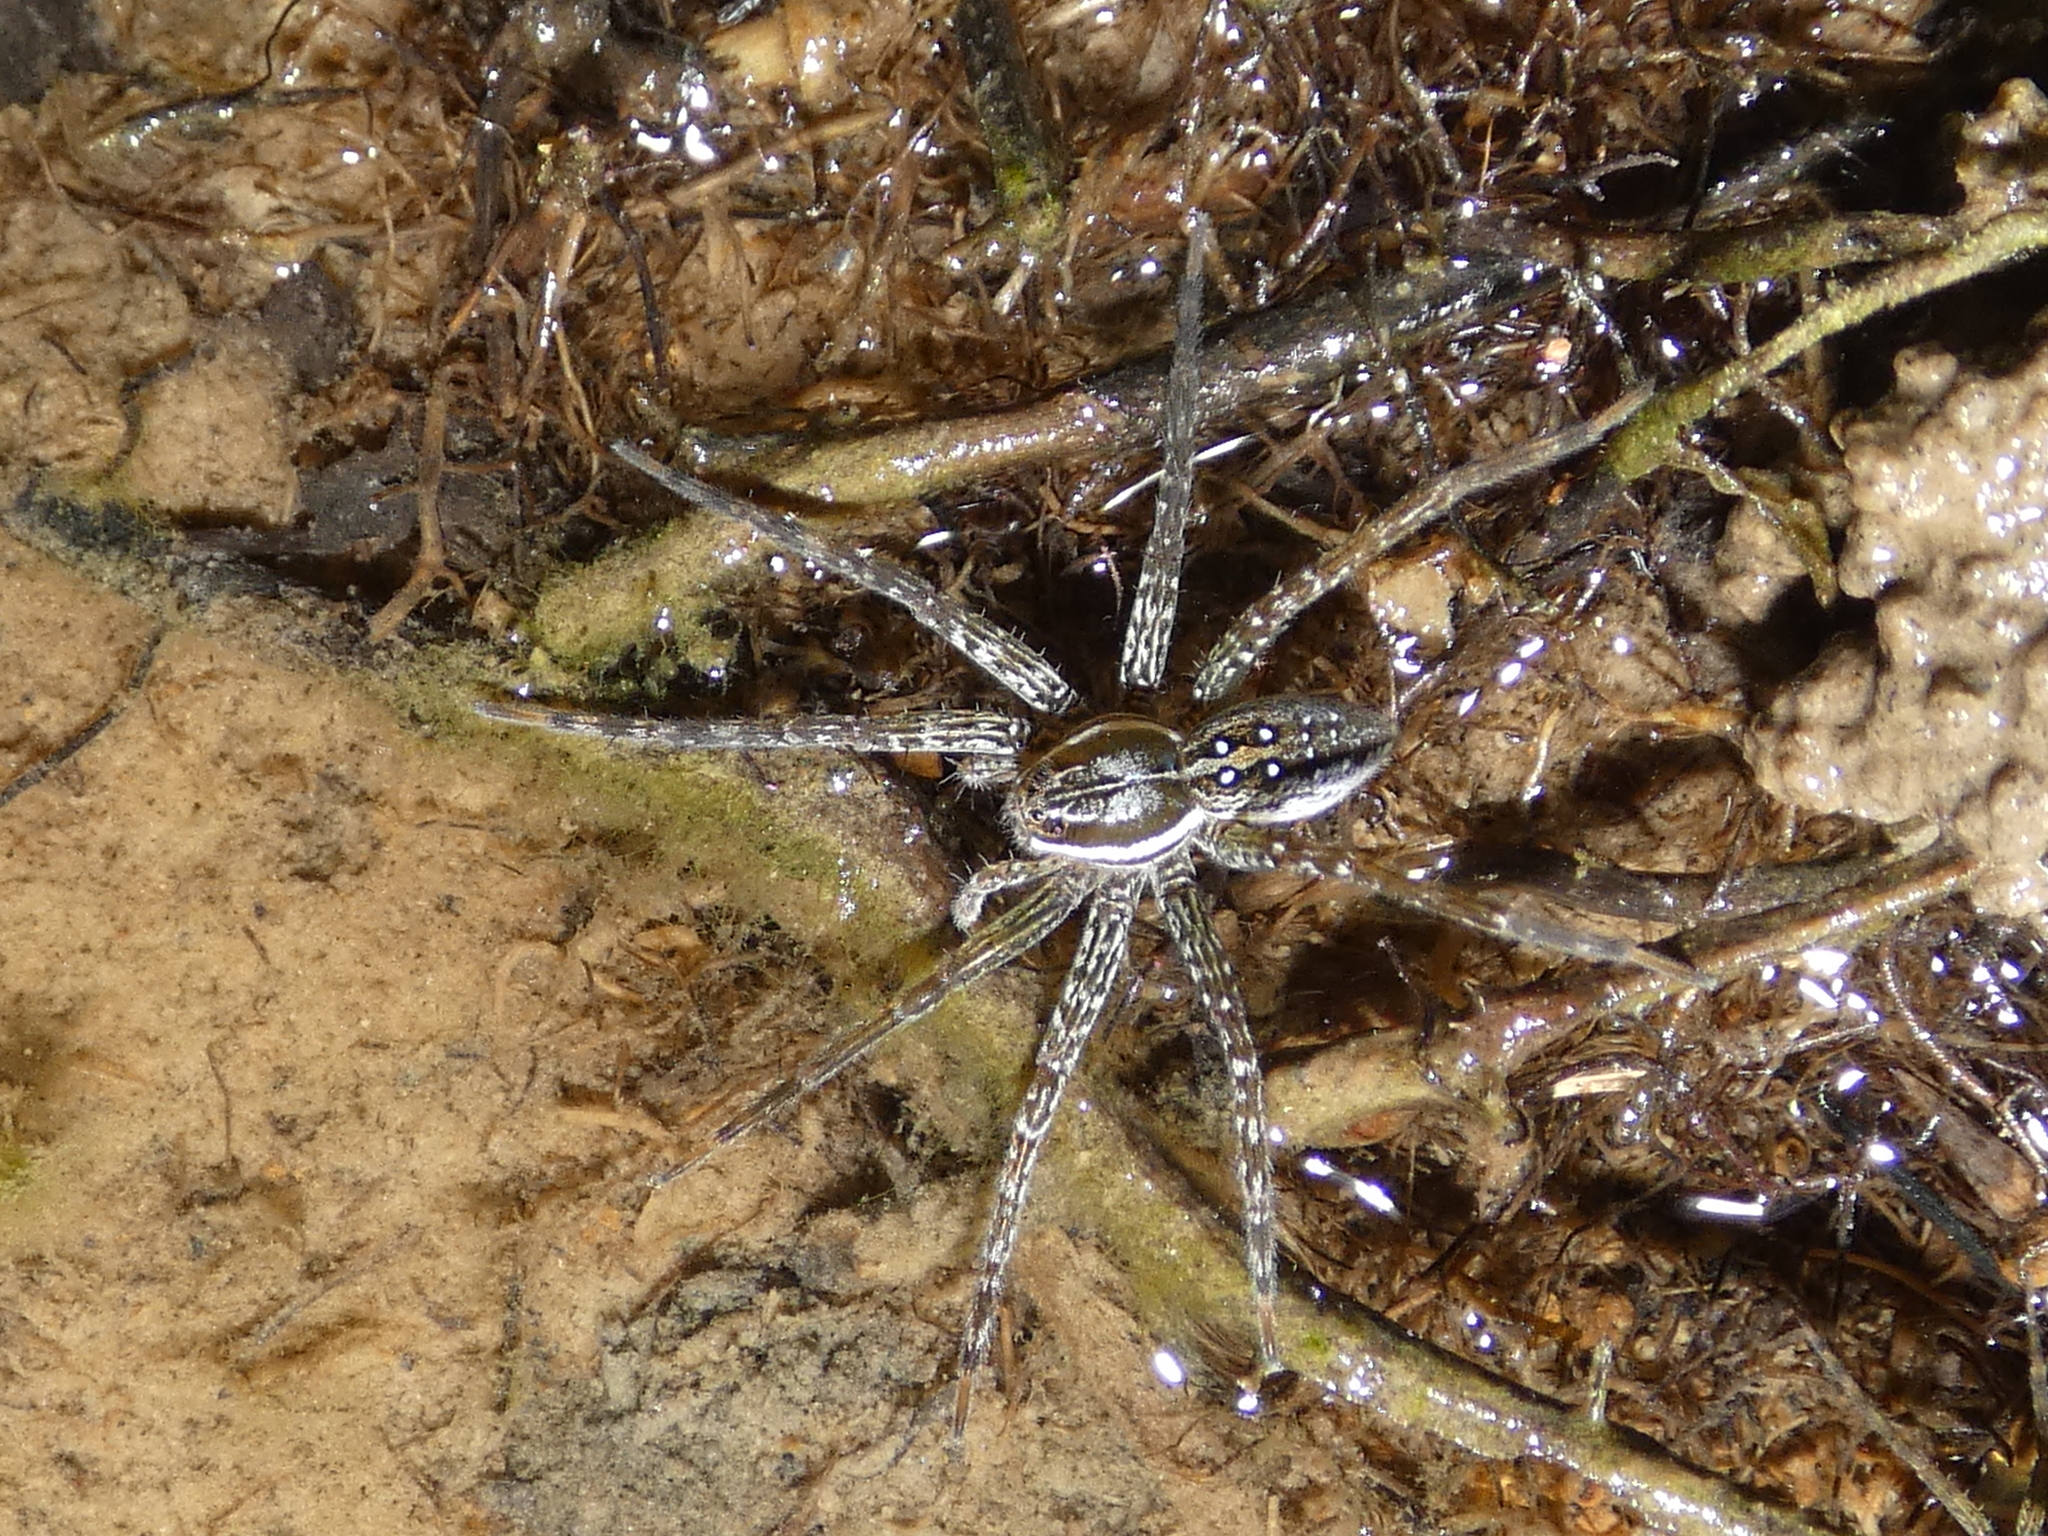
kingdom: Animalia
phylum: Arthropoda
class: Arachnida
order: Araneae
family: Pisauridae
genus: Dolomedes
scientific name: Dolomedes triton
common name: Six-spotted fishing spider
